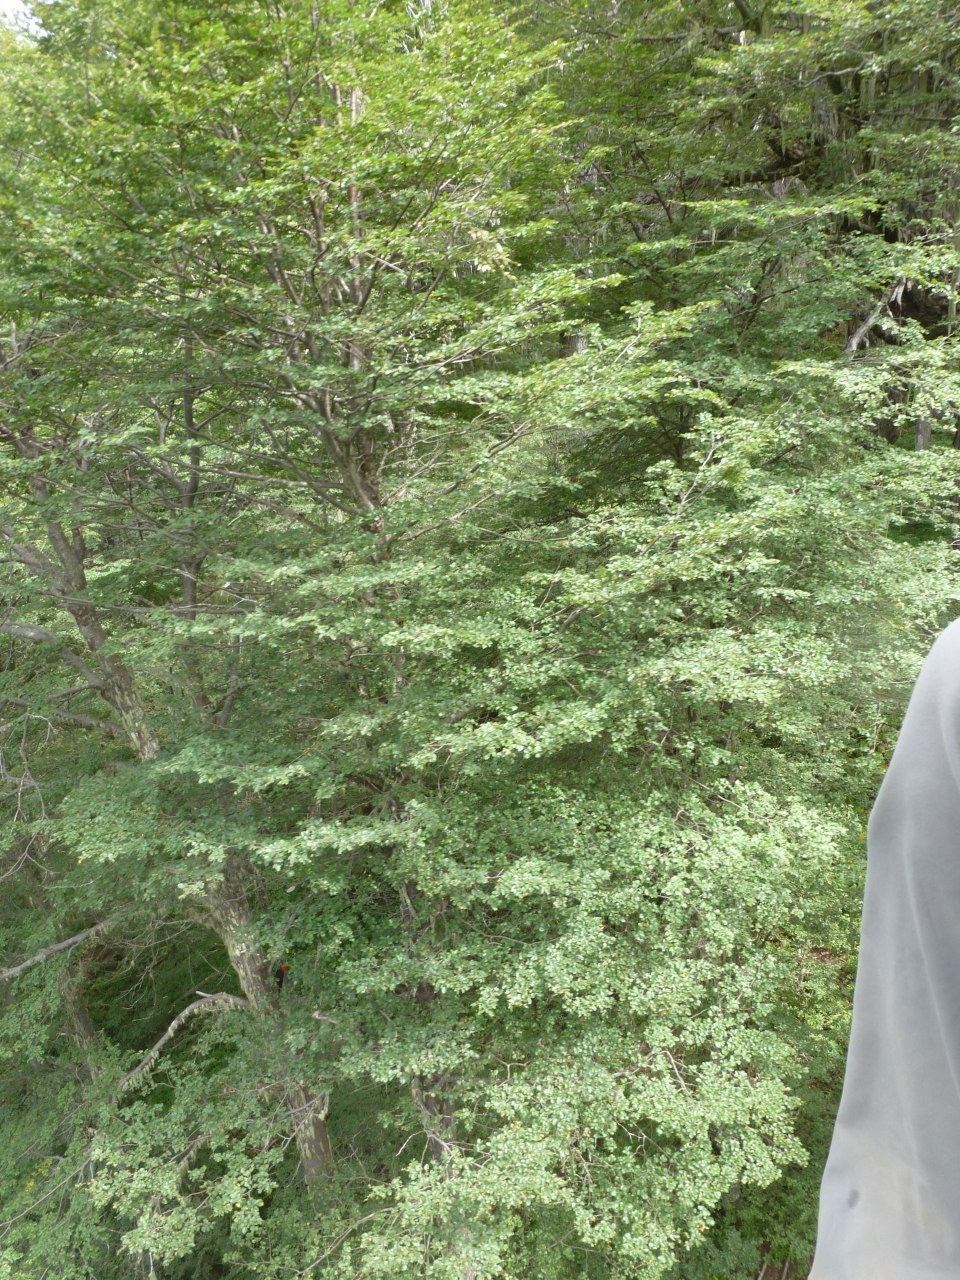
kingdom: Animalia
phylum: Chordata
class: Aves
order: Piciformes
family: Picidae
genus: Campephilus
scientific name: Campephilus magellanicus
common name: Magellanic woodpecker
